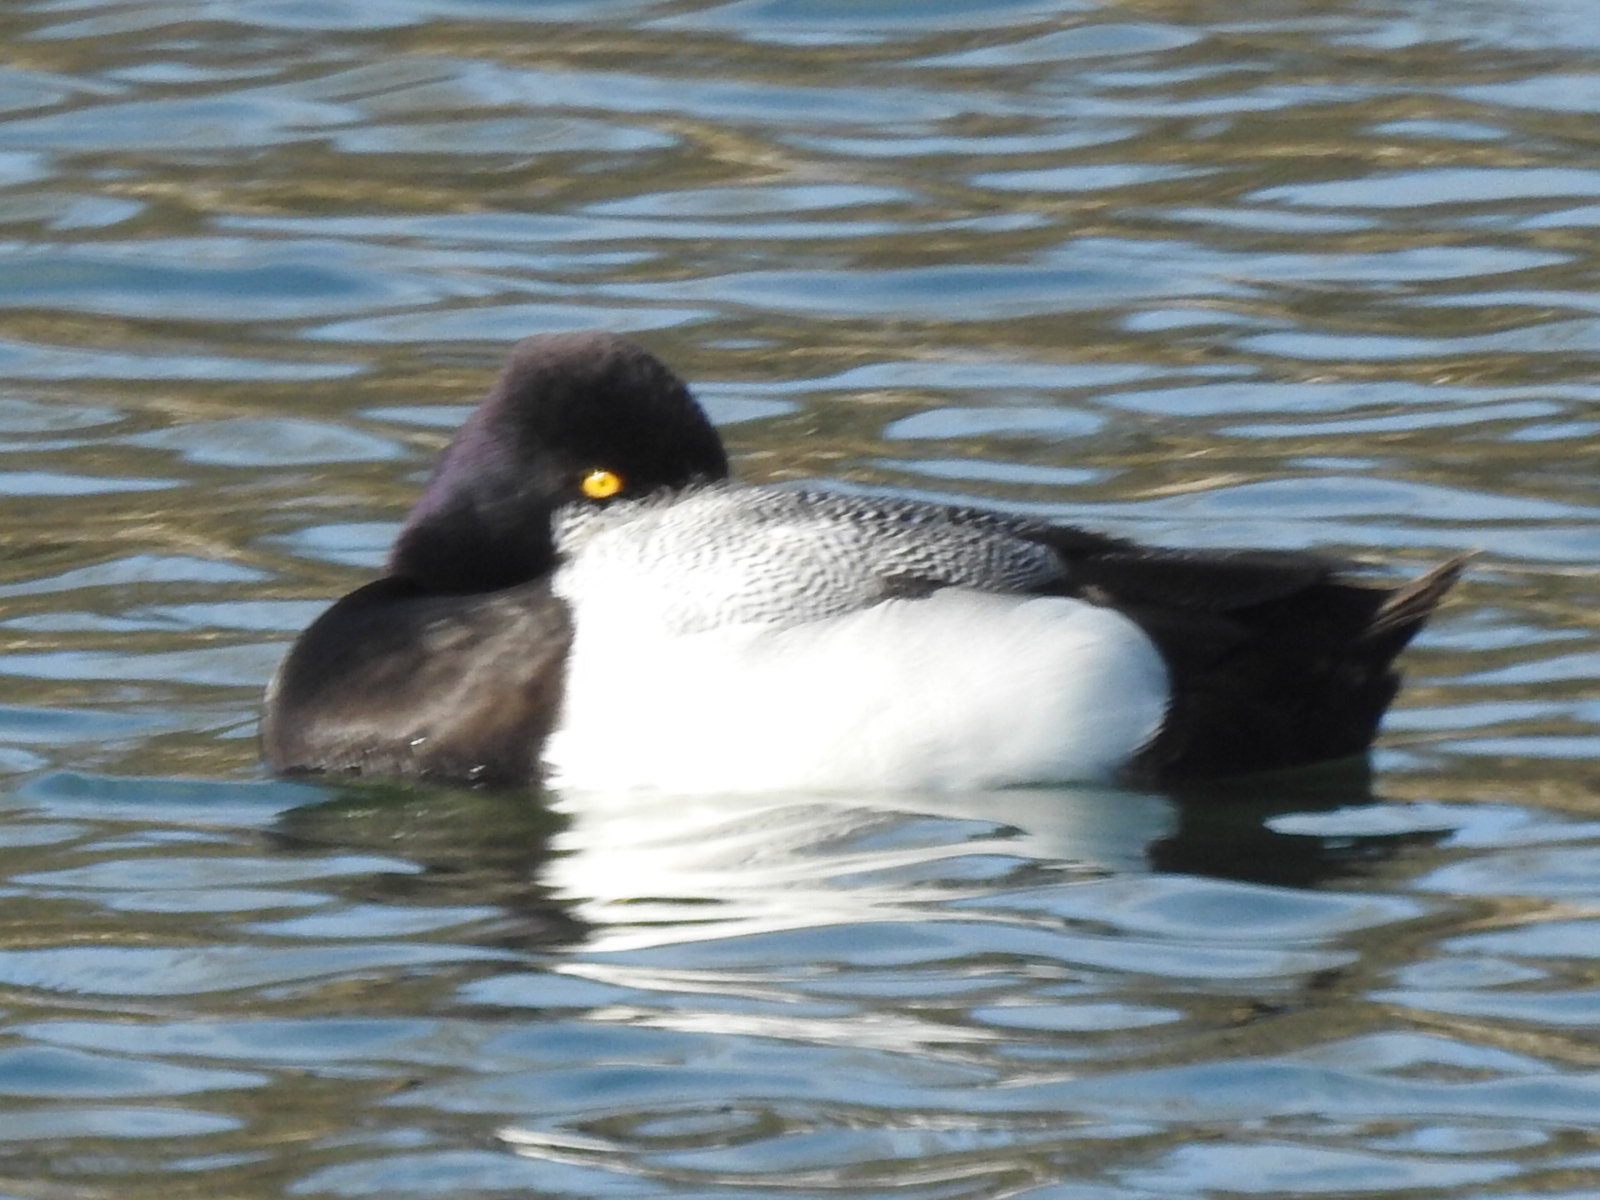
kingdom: Animalia
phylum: Chordata
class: Aves
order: Anseriformes
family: Anatidae
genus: Aythya
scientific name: Aythya affinis
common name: Lesser scaup
